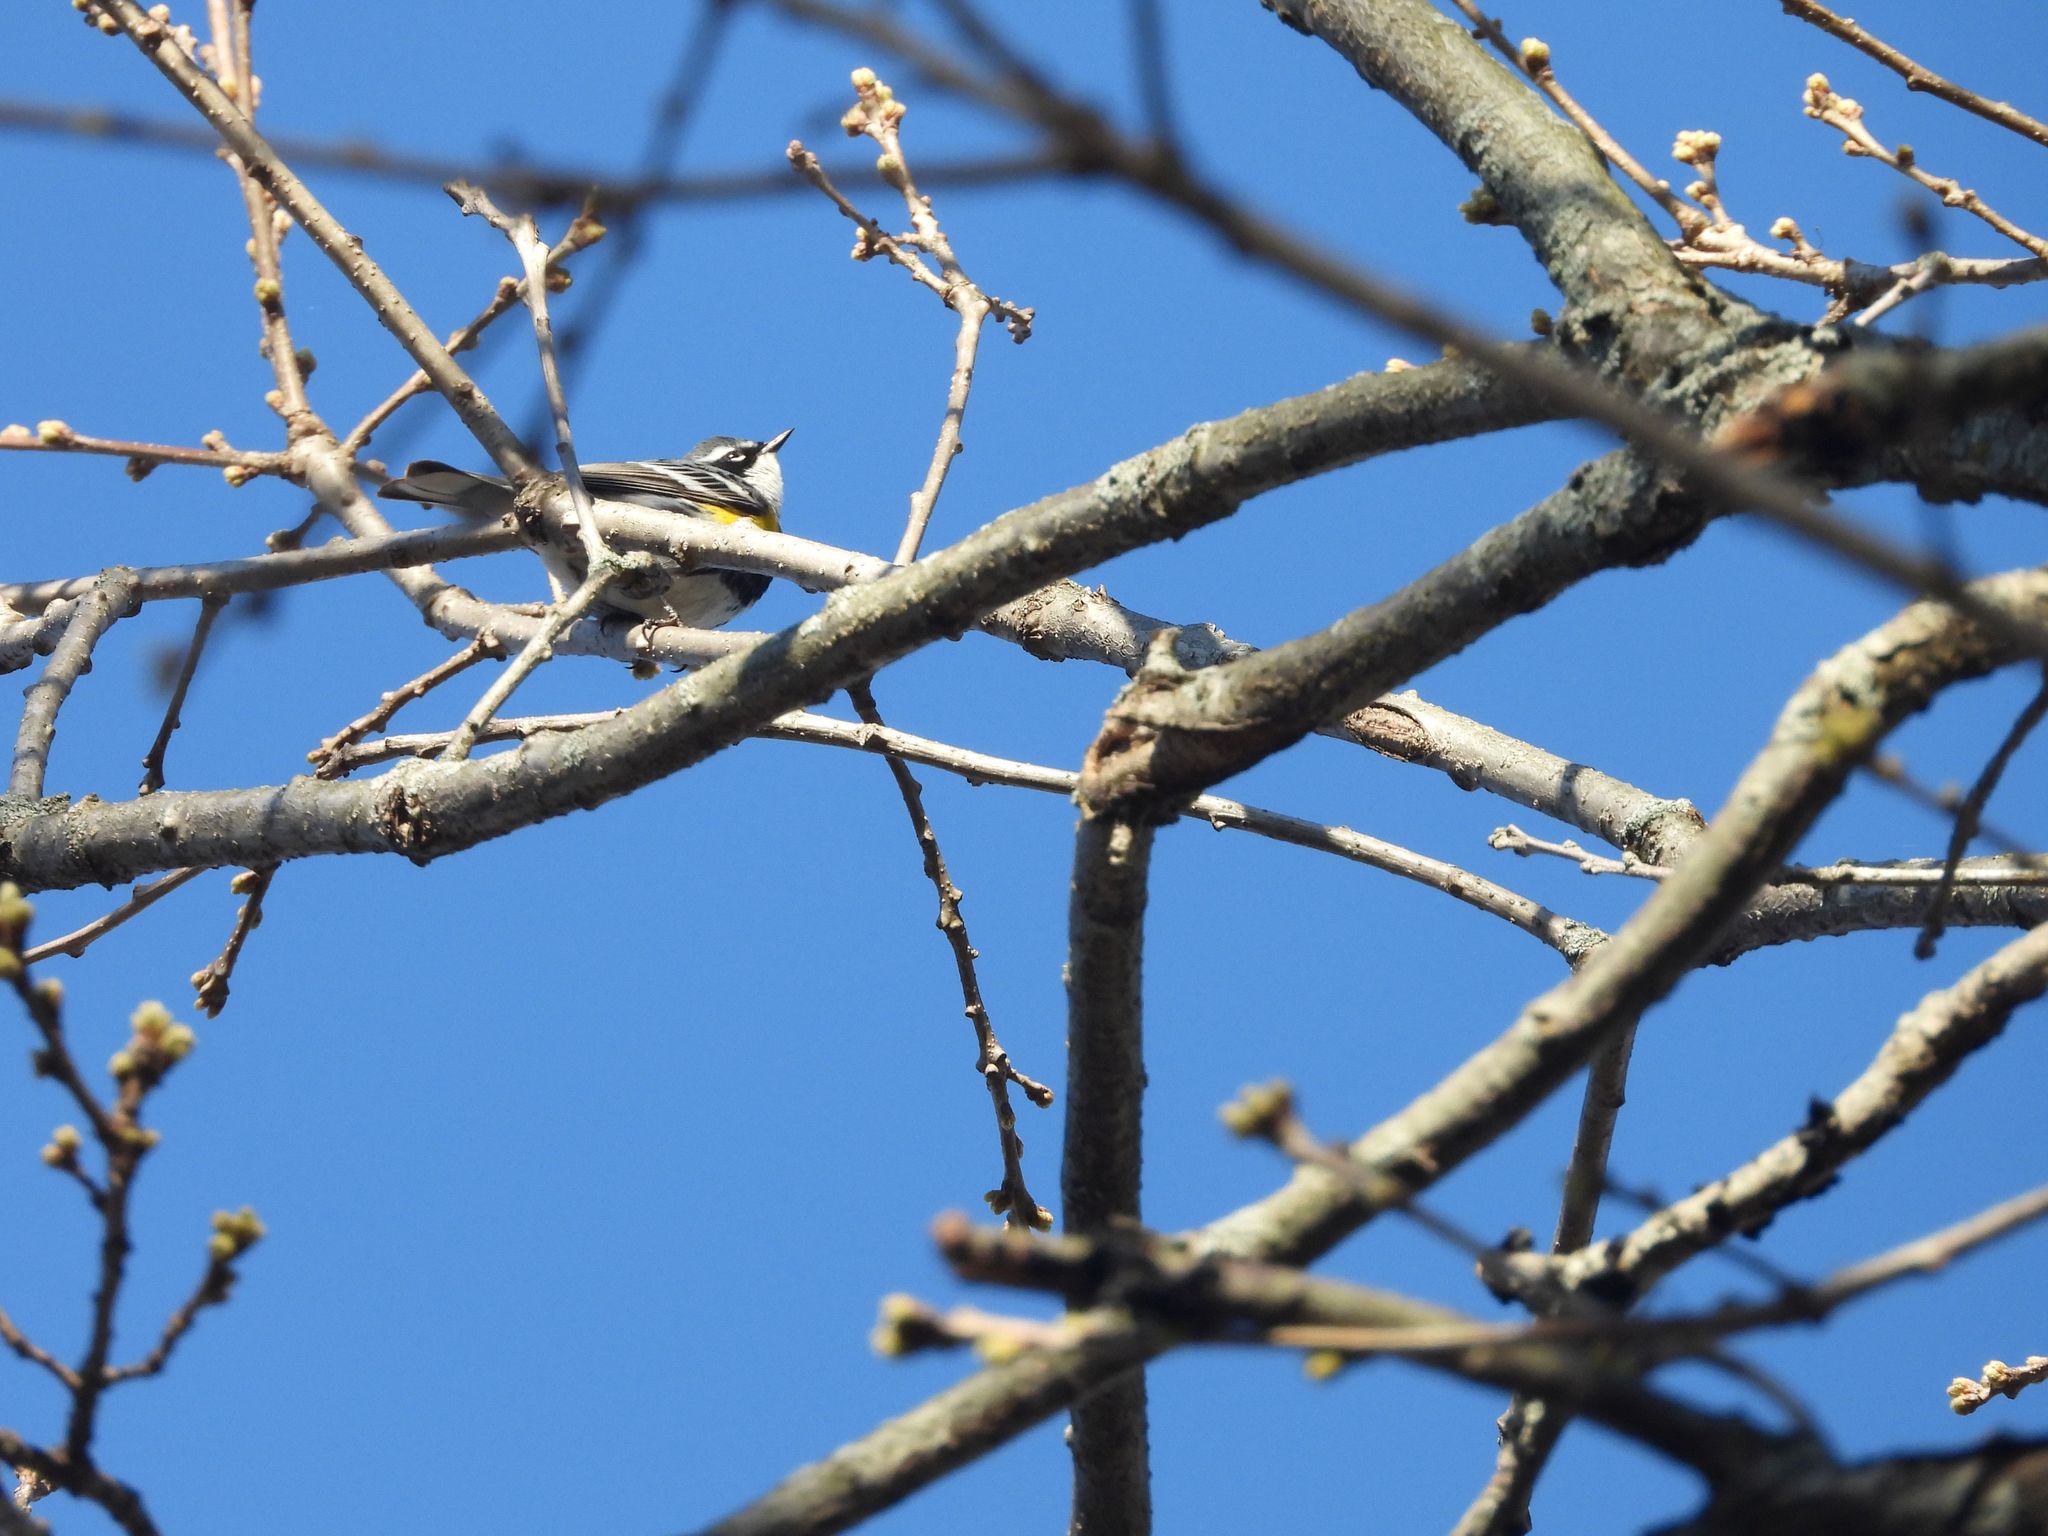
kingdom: Animalia
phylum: Chordata
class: Aves
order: Passeriformes
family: Parulidae
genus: Setophaga
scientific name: Setophaga coronata
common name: Myrtle warbler
